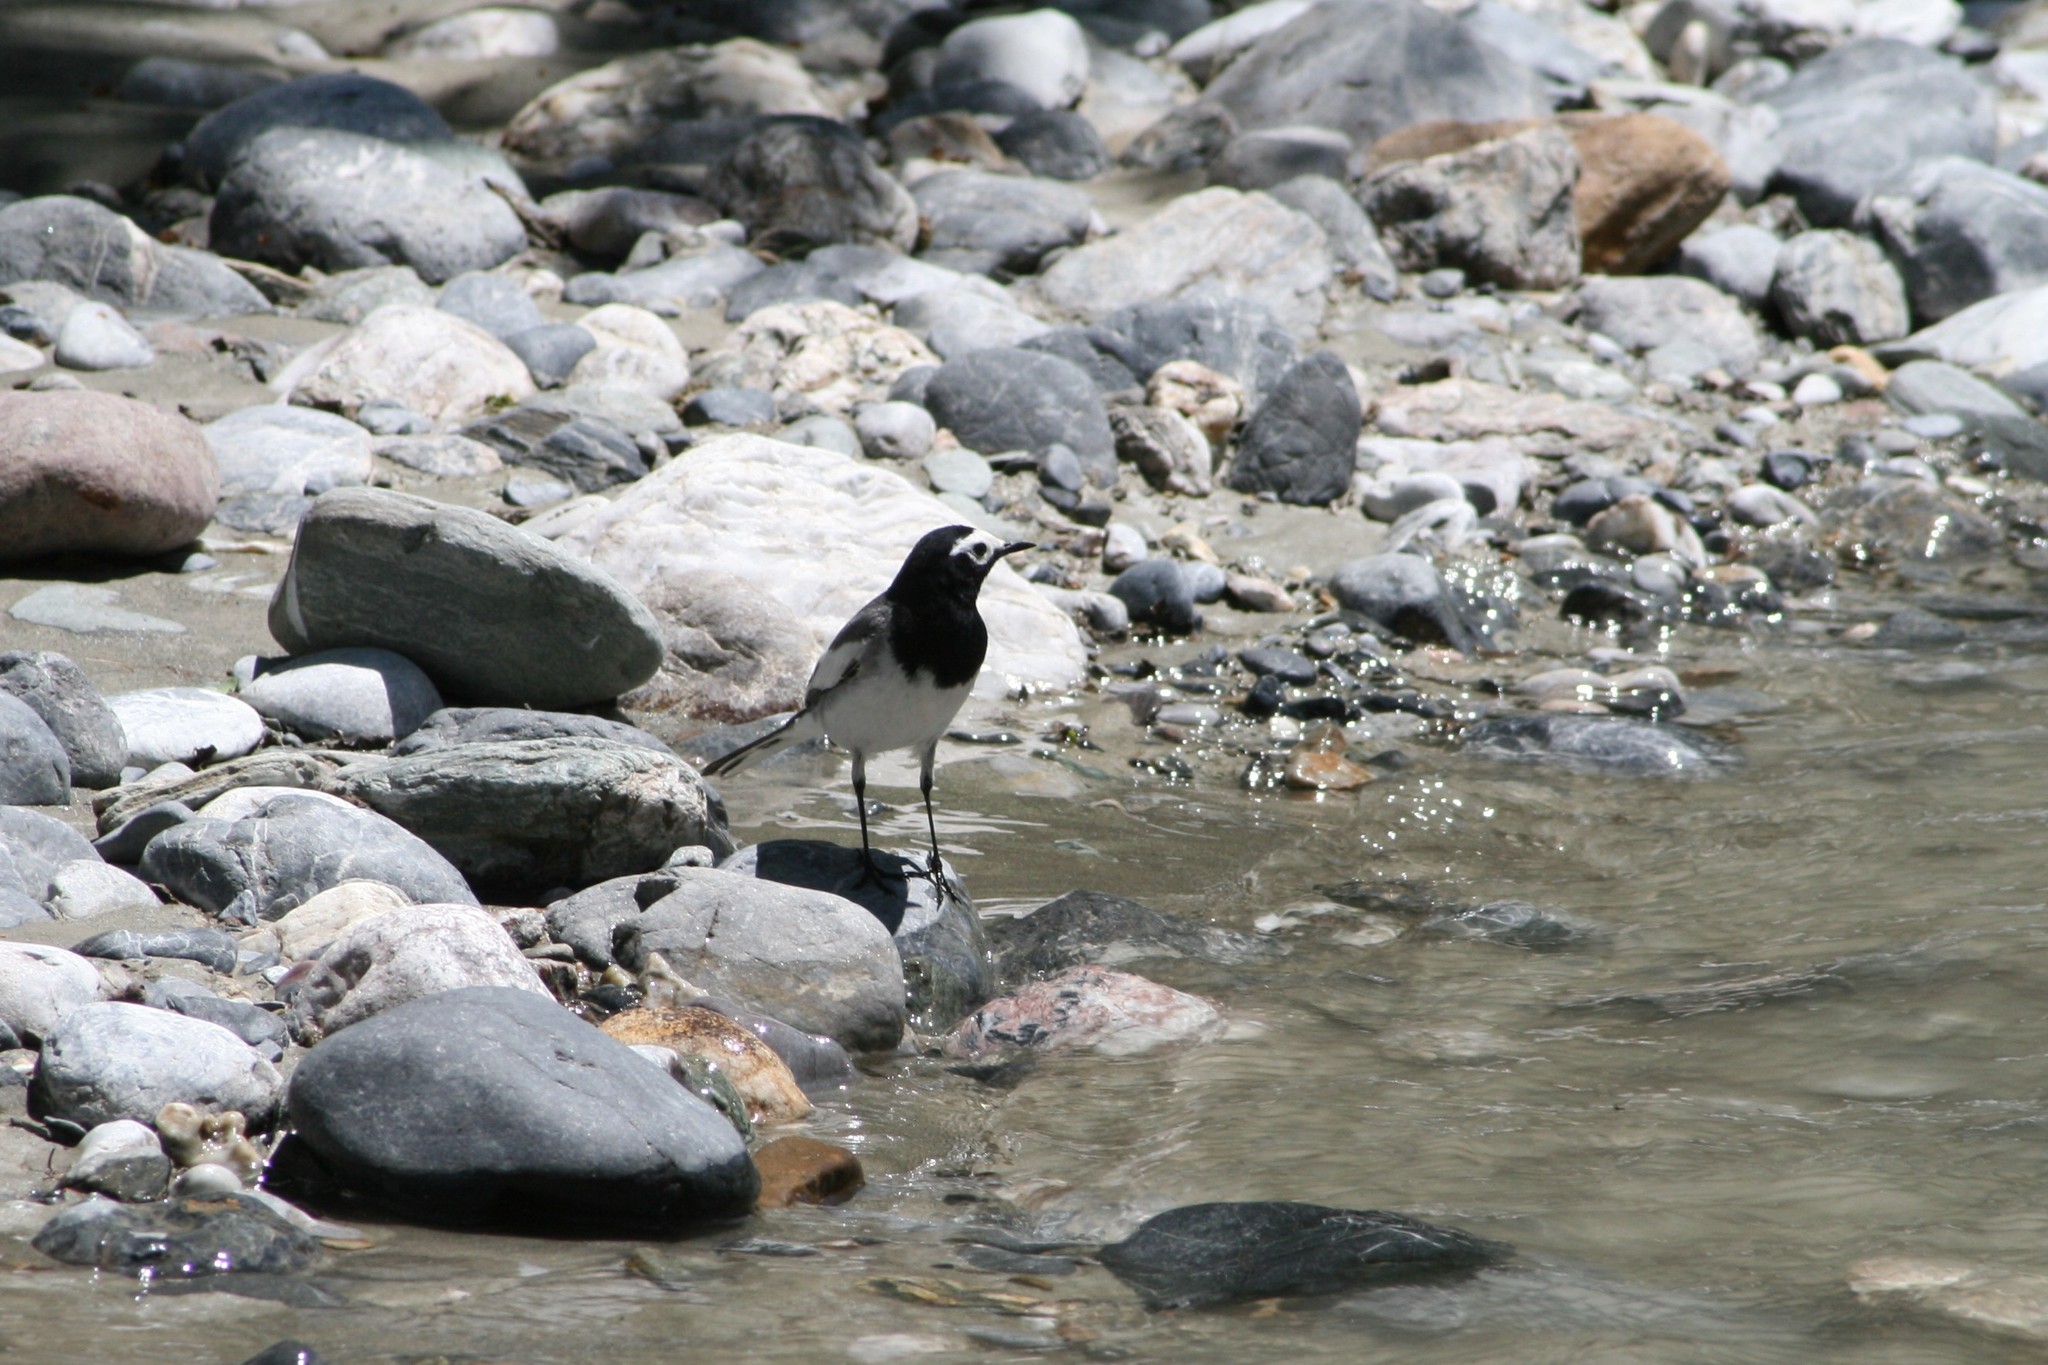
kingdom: Animalia
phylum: Chordata
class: Aves
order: Passeriformes
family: Motacillidae
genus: Motacilla
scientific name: Motacilla alba
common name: White wagtail
